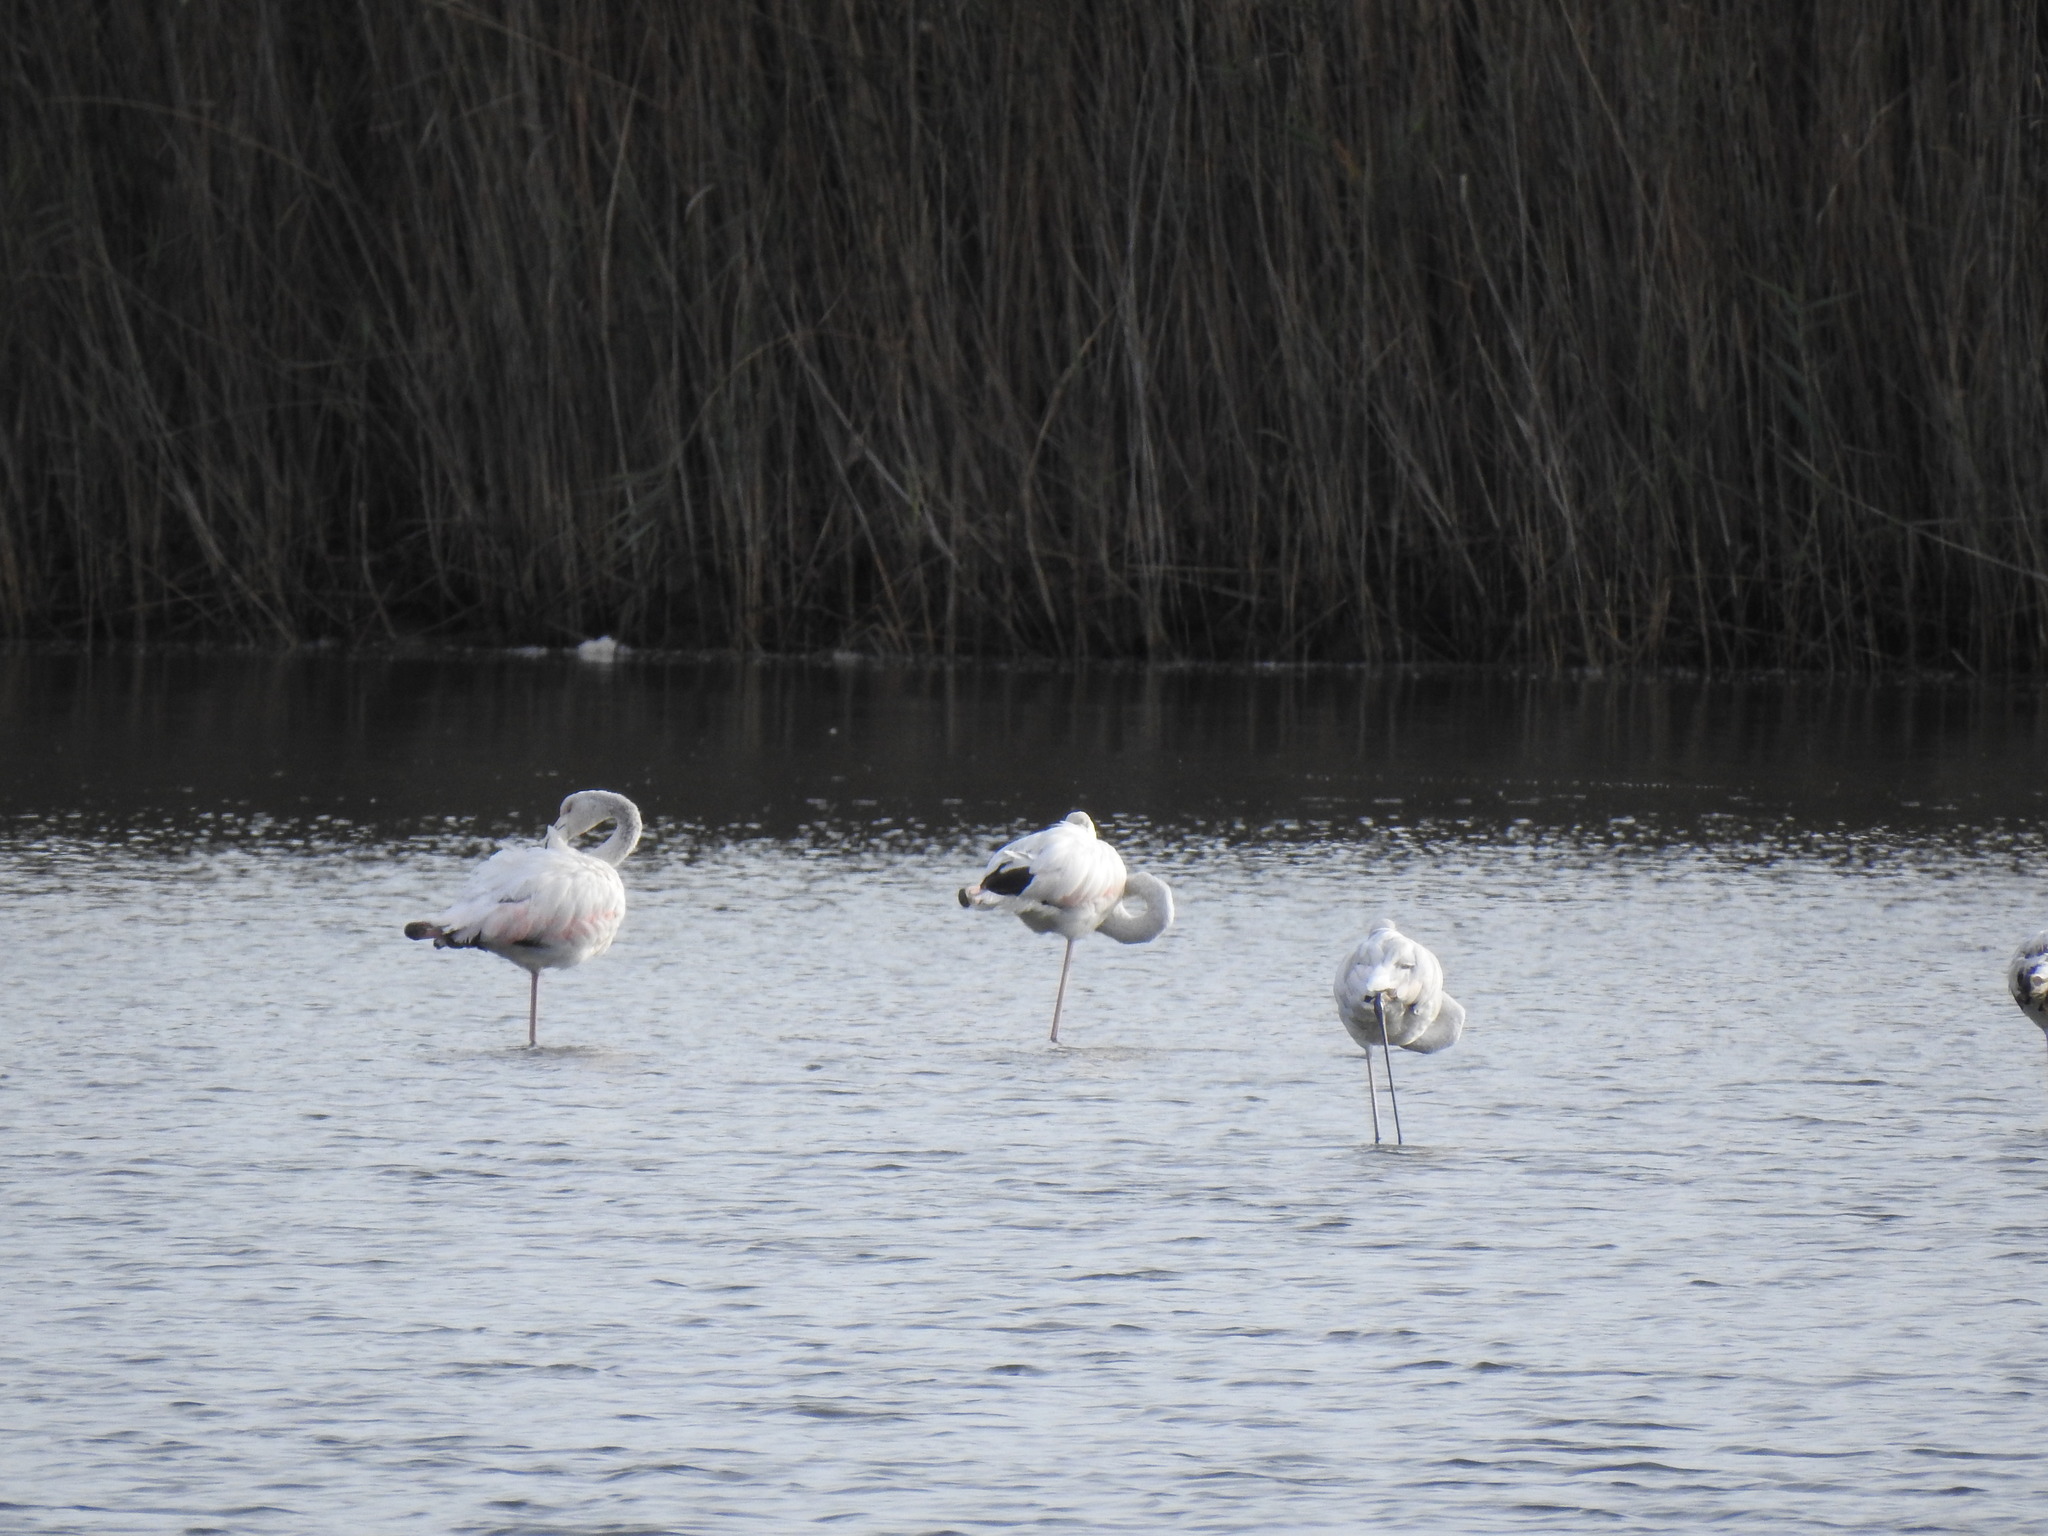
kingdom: Animalia
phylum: Chordata
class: Aves
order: Phoenicopteriformes
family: Phoenicopteridae
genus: Phoenicopterus
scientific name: Phoenicopterus roseus
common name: Greater flamingo
